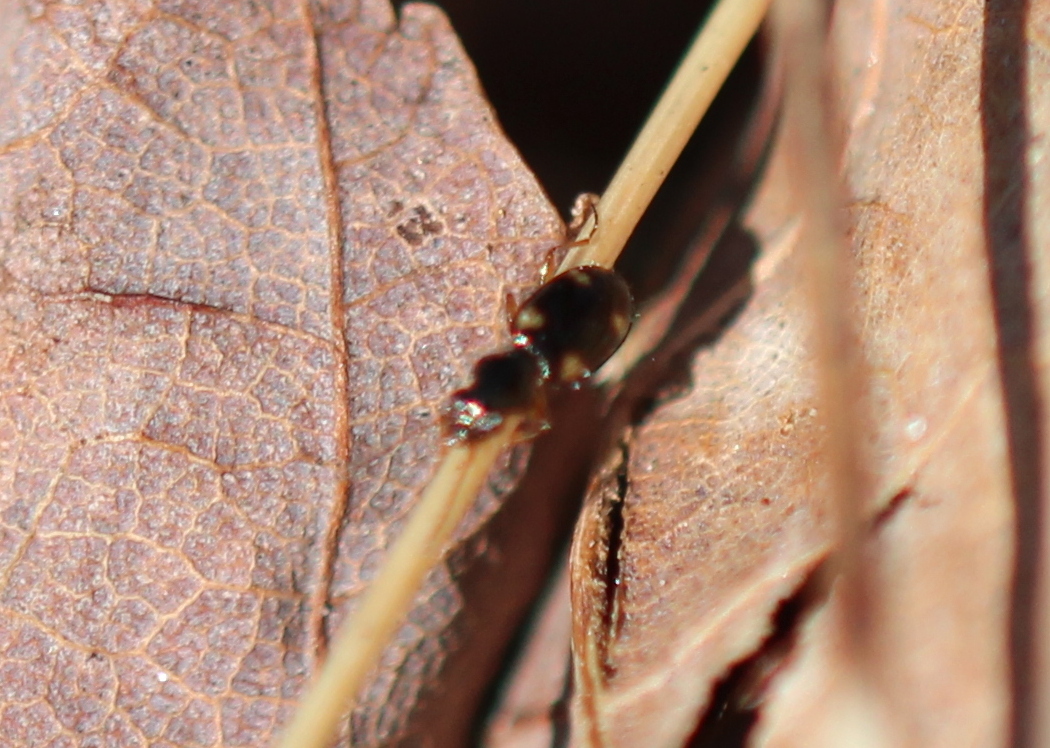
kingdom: Animalia
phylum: Arthropoda
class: Insecta
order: Coleoptera
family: Carabidae
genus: Bembidion
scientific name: Bembidion quadrimaculatum
